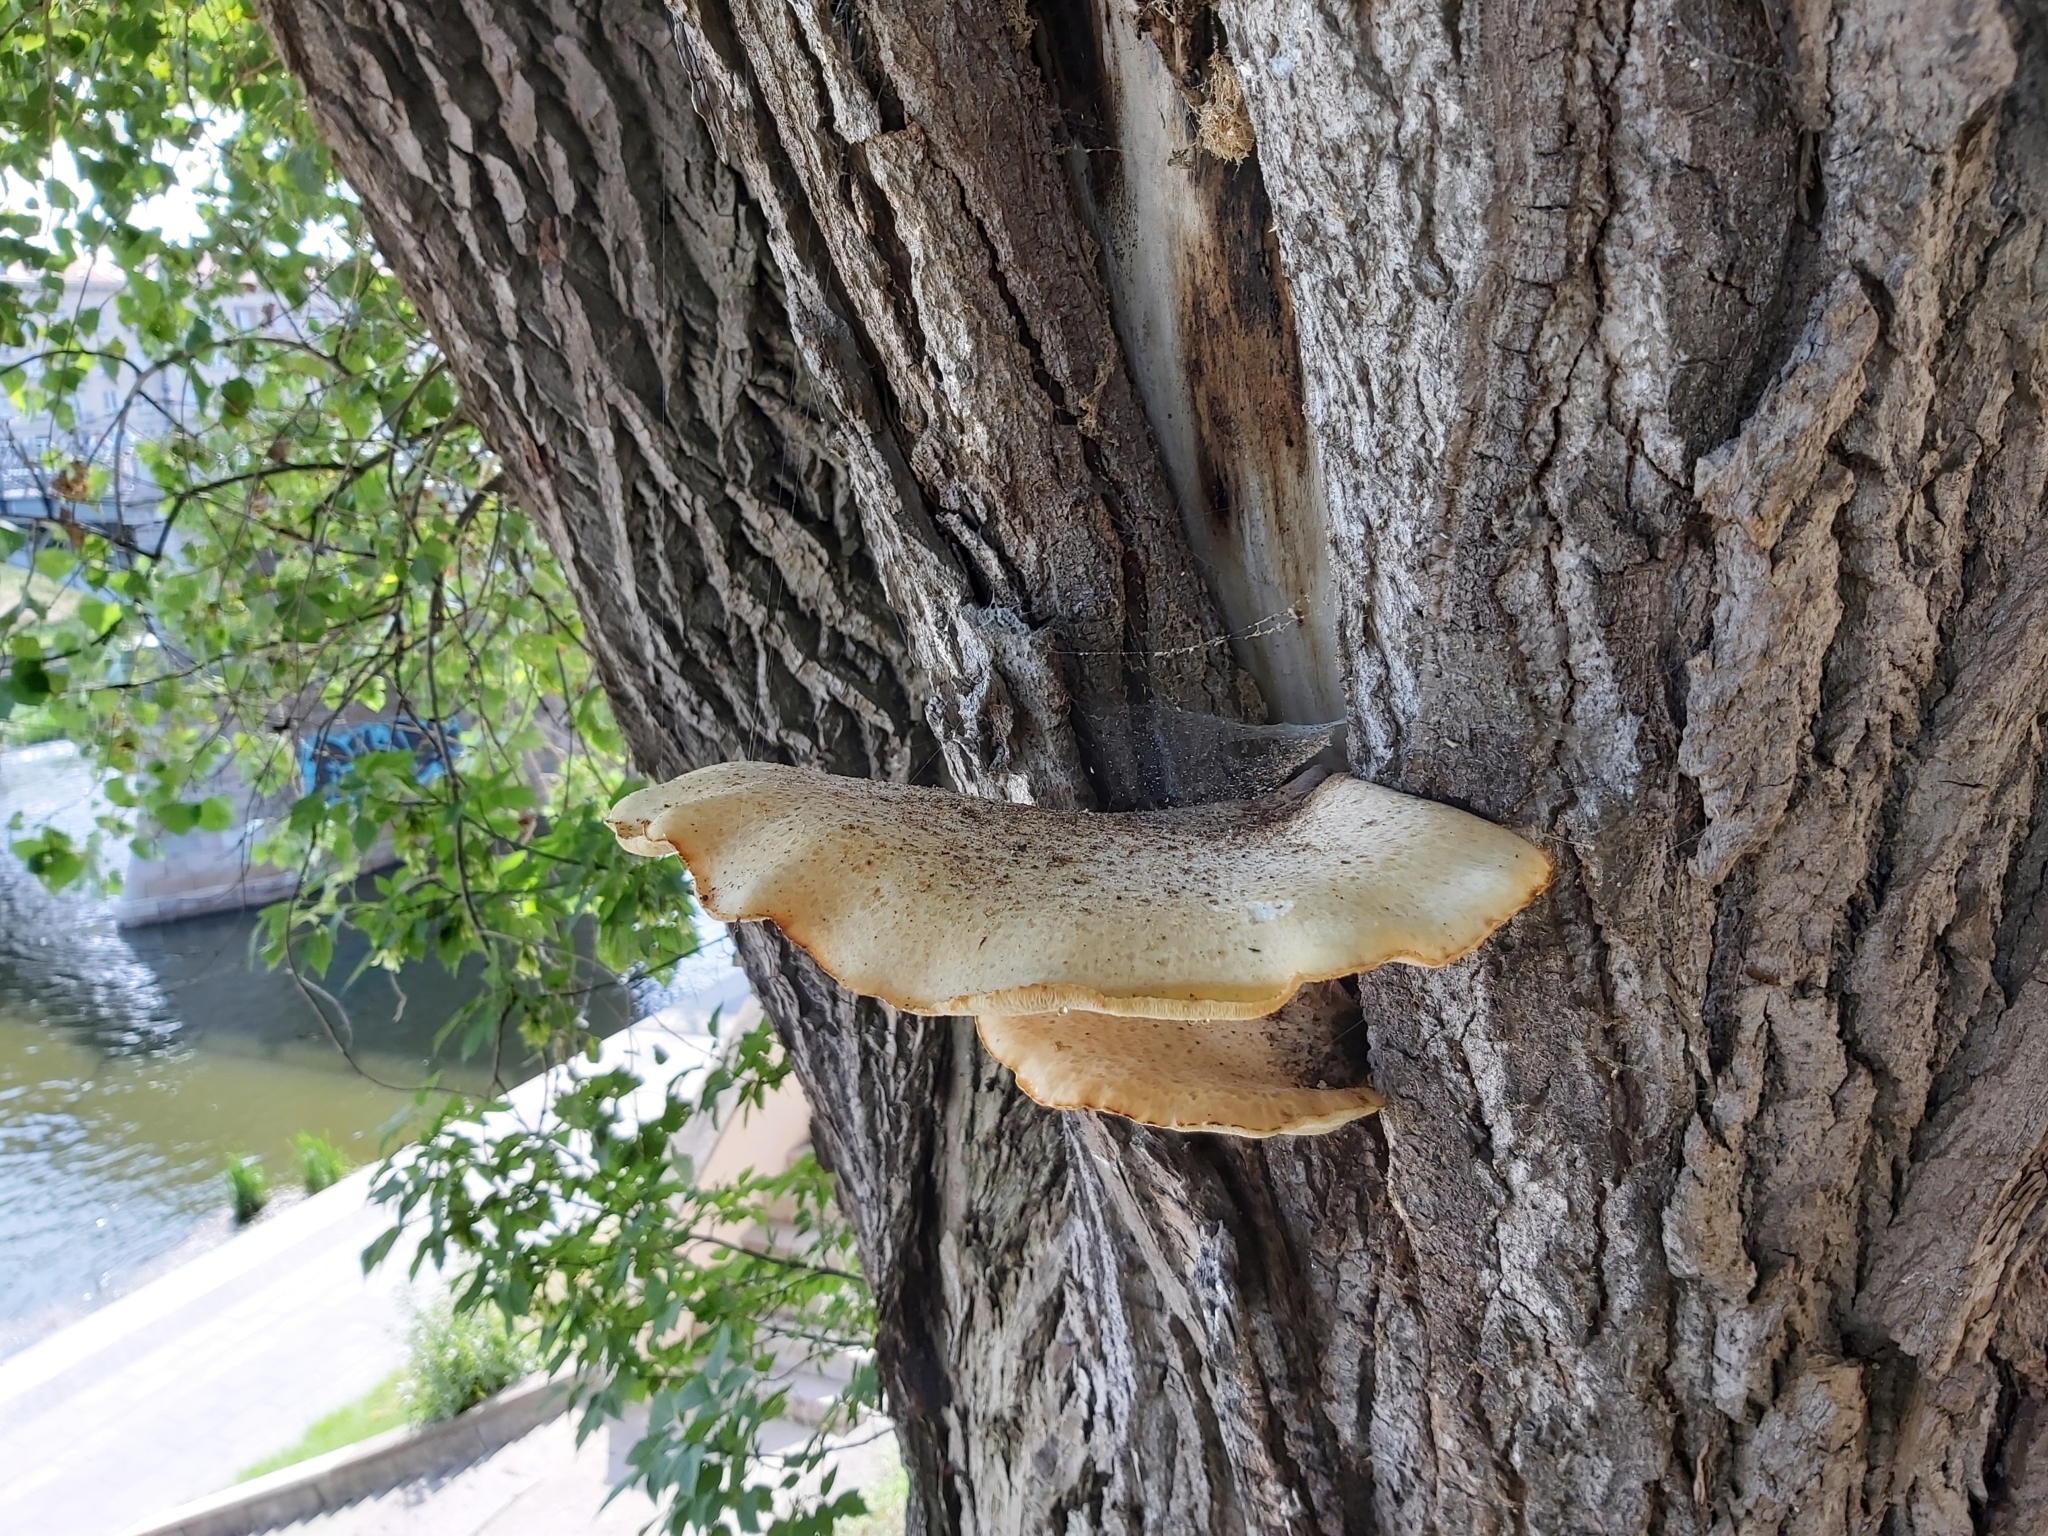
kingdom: Fungi
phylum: Basidiomycota
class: Agaricomycetes
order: Polyporales
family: Polyporaceae
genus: Cerioporus
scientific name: Cerioporus squamosus
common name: Dryad's saddle
